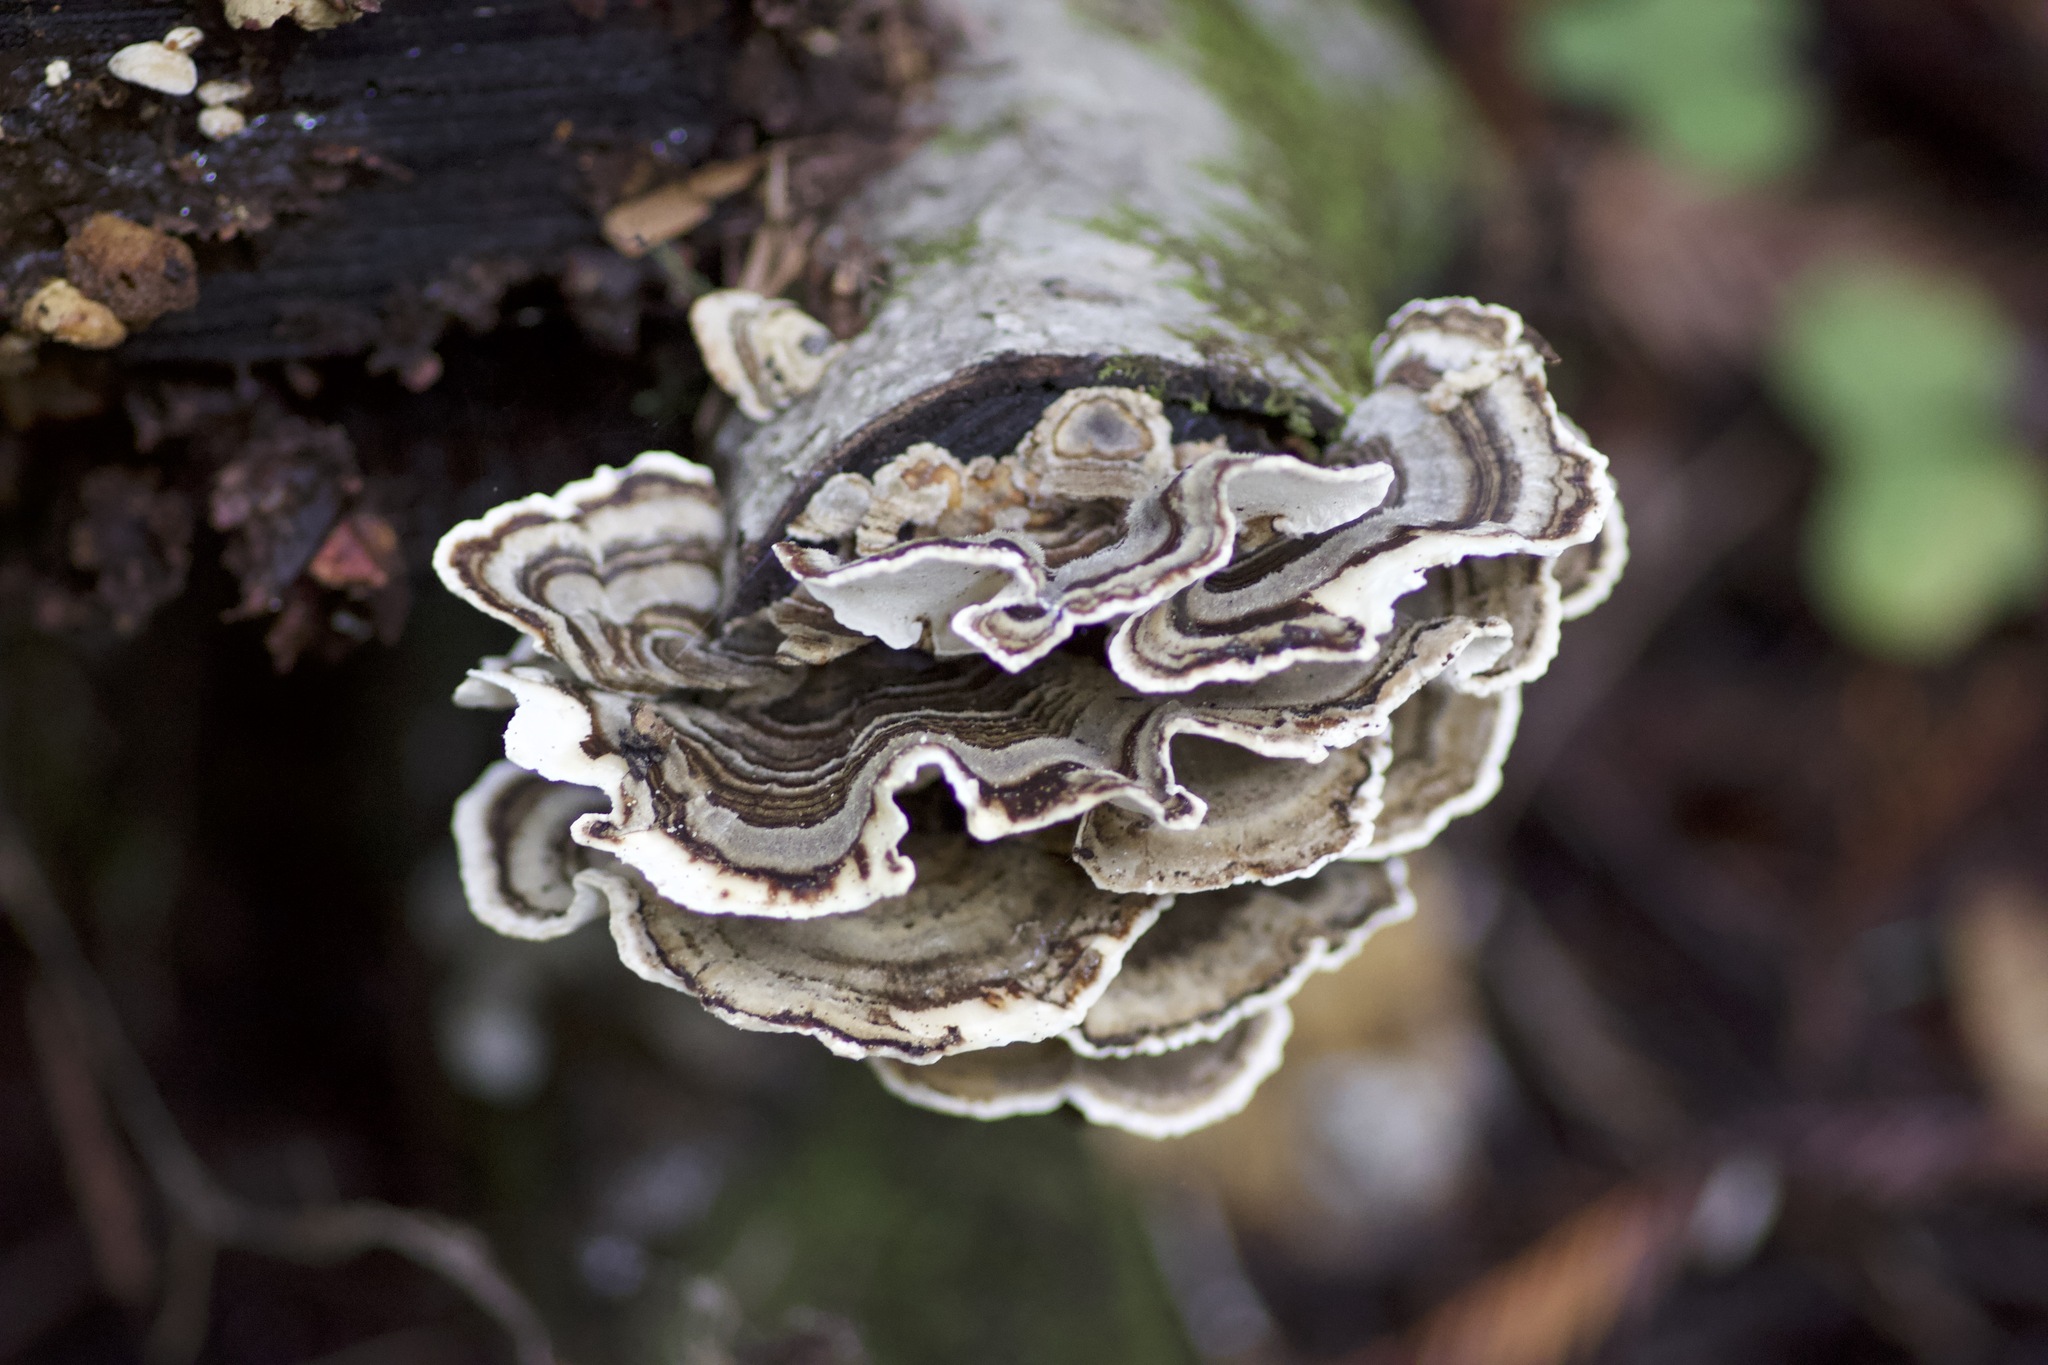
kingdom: Fungi
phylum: Basidiomycota
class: Agaricomycetes
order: Polyporales
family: Polyporaceae
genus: Trametes
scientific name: Trametes versicolor
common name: Turkeytail
